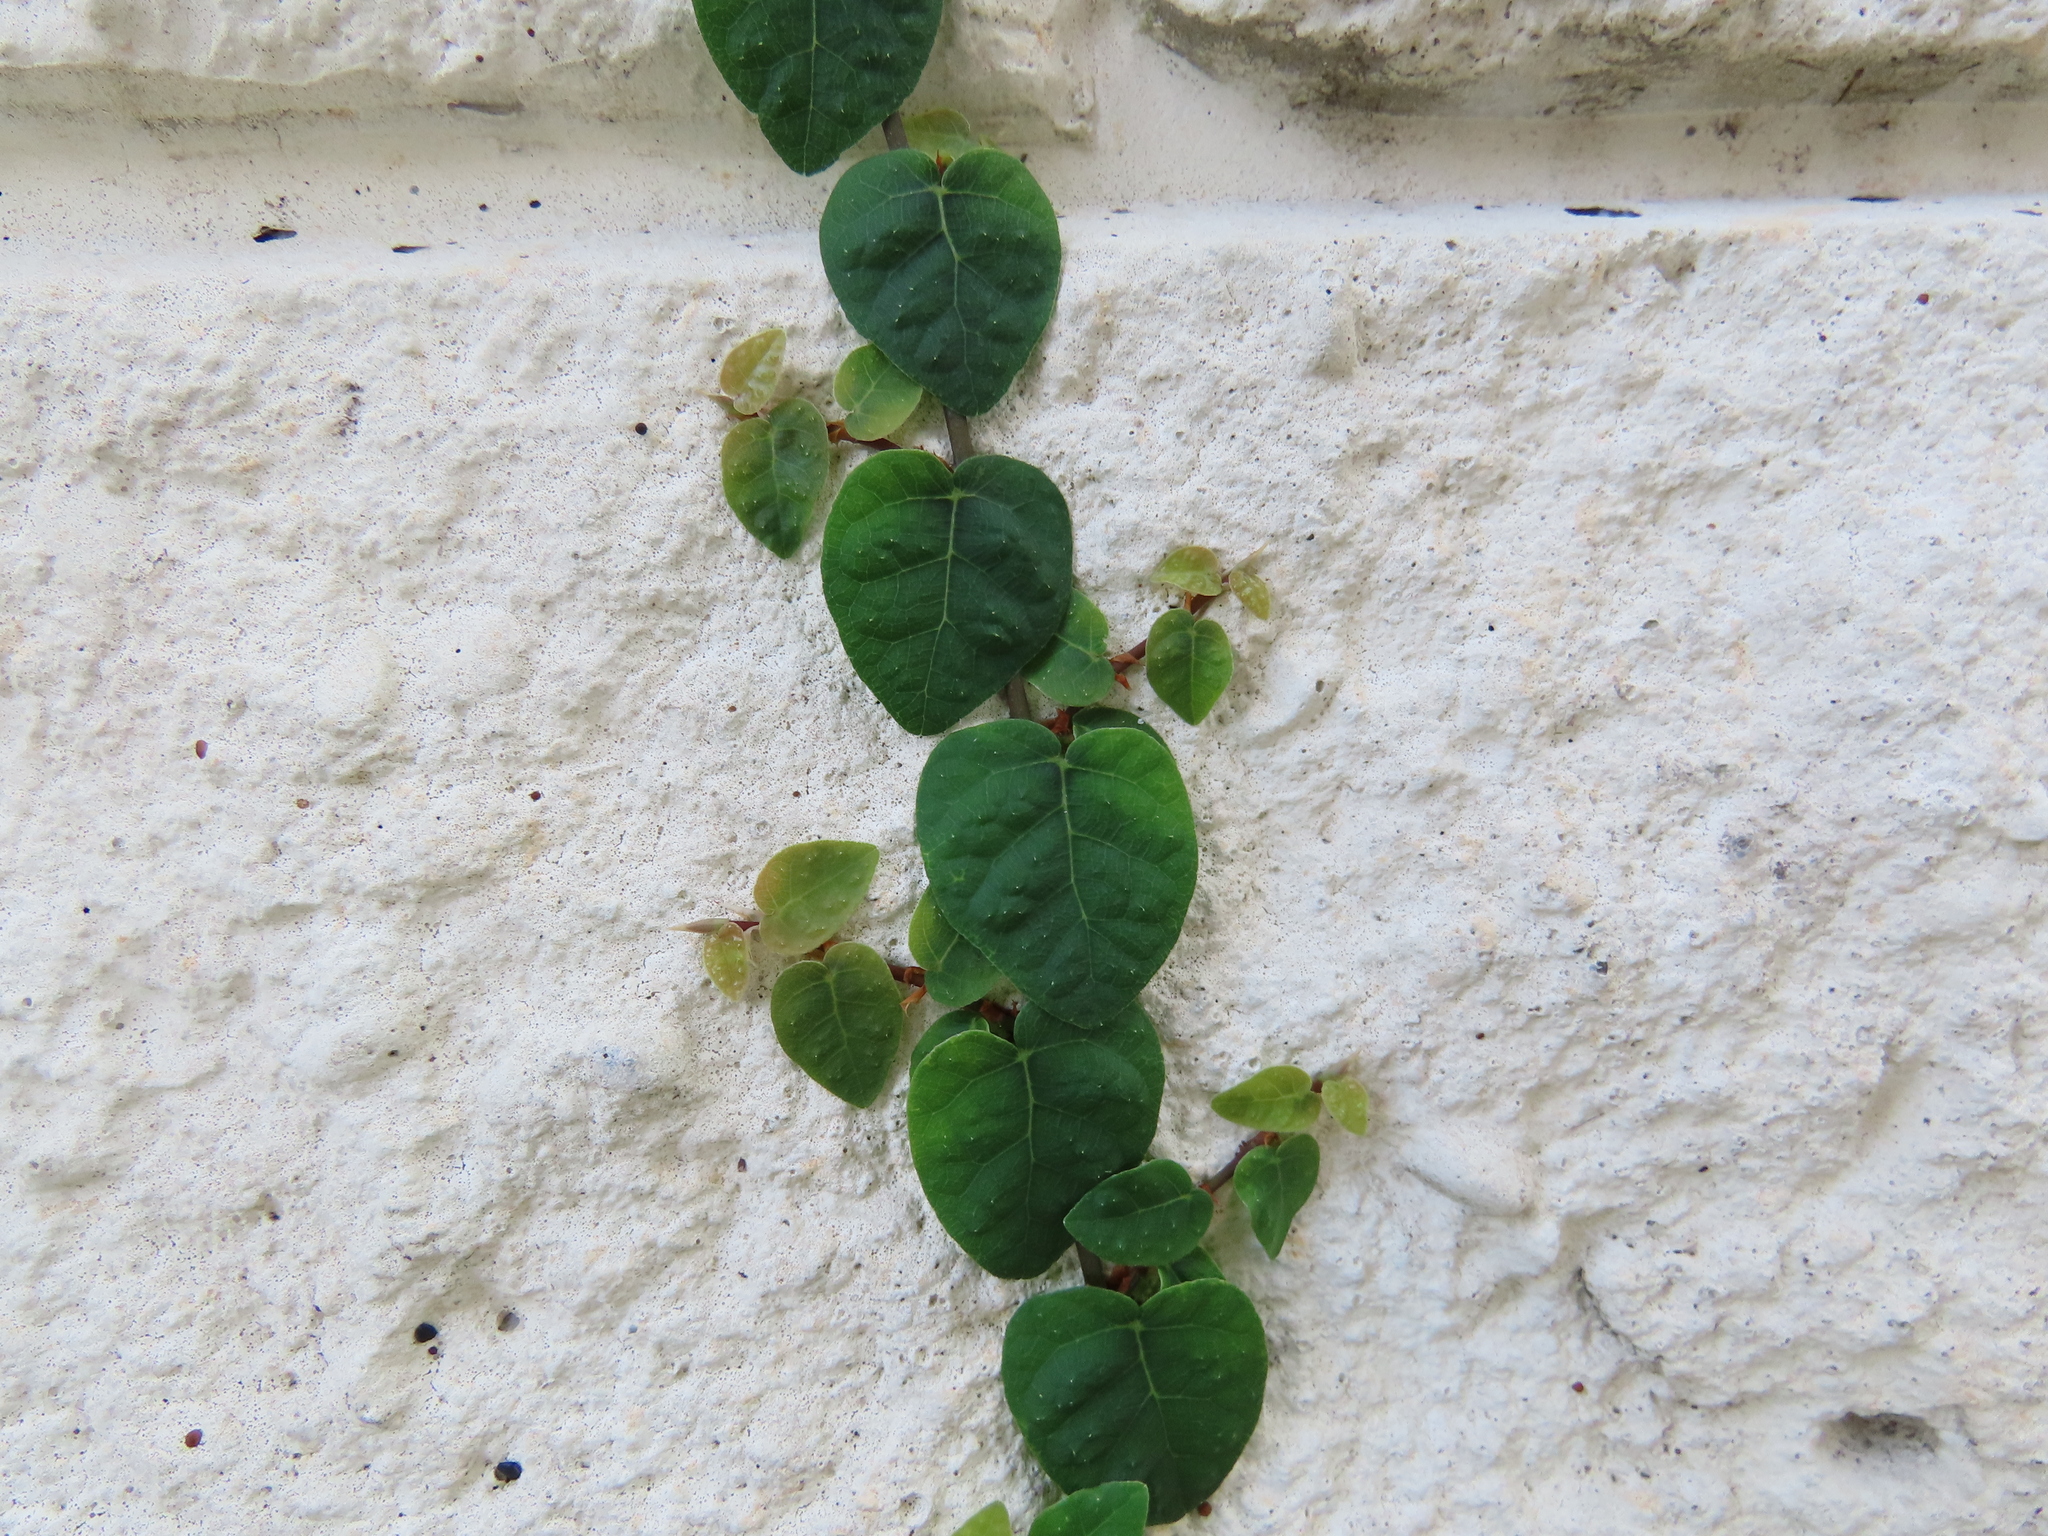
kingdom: Plantae
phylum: Tracheophyta
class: Magnoliopsida
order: Rosales
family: Moraceae
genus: Ficus
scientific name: Ficus pumila
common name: Climbingfig
